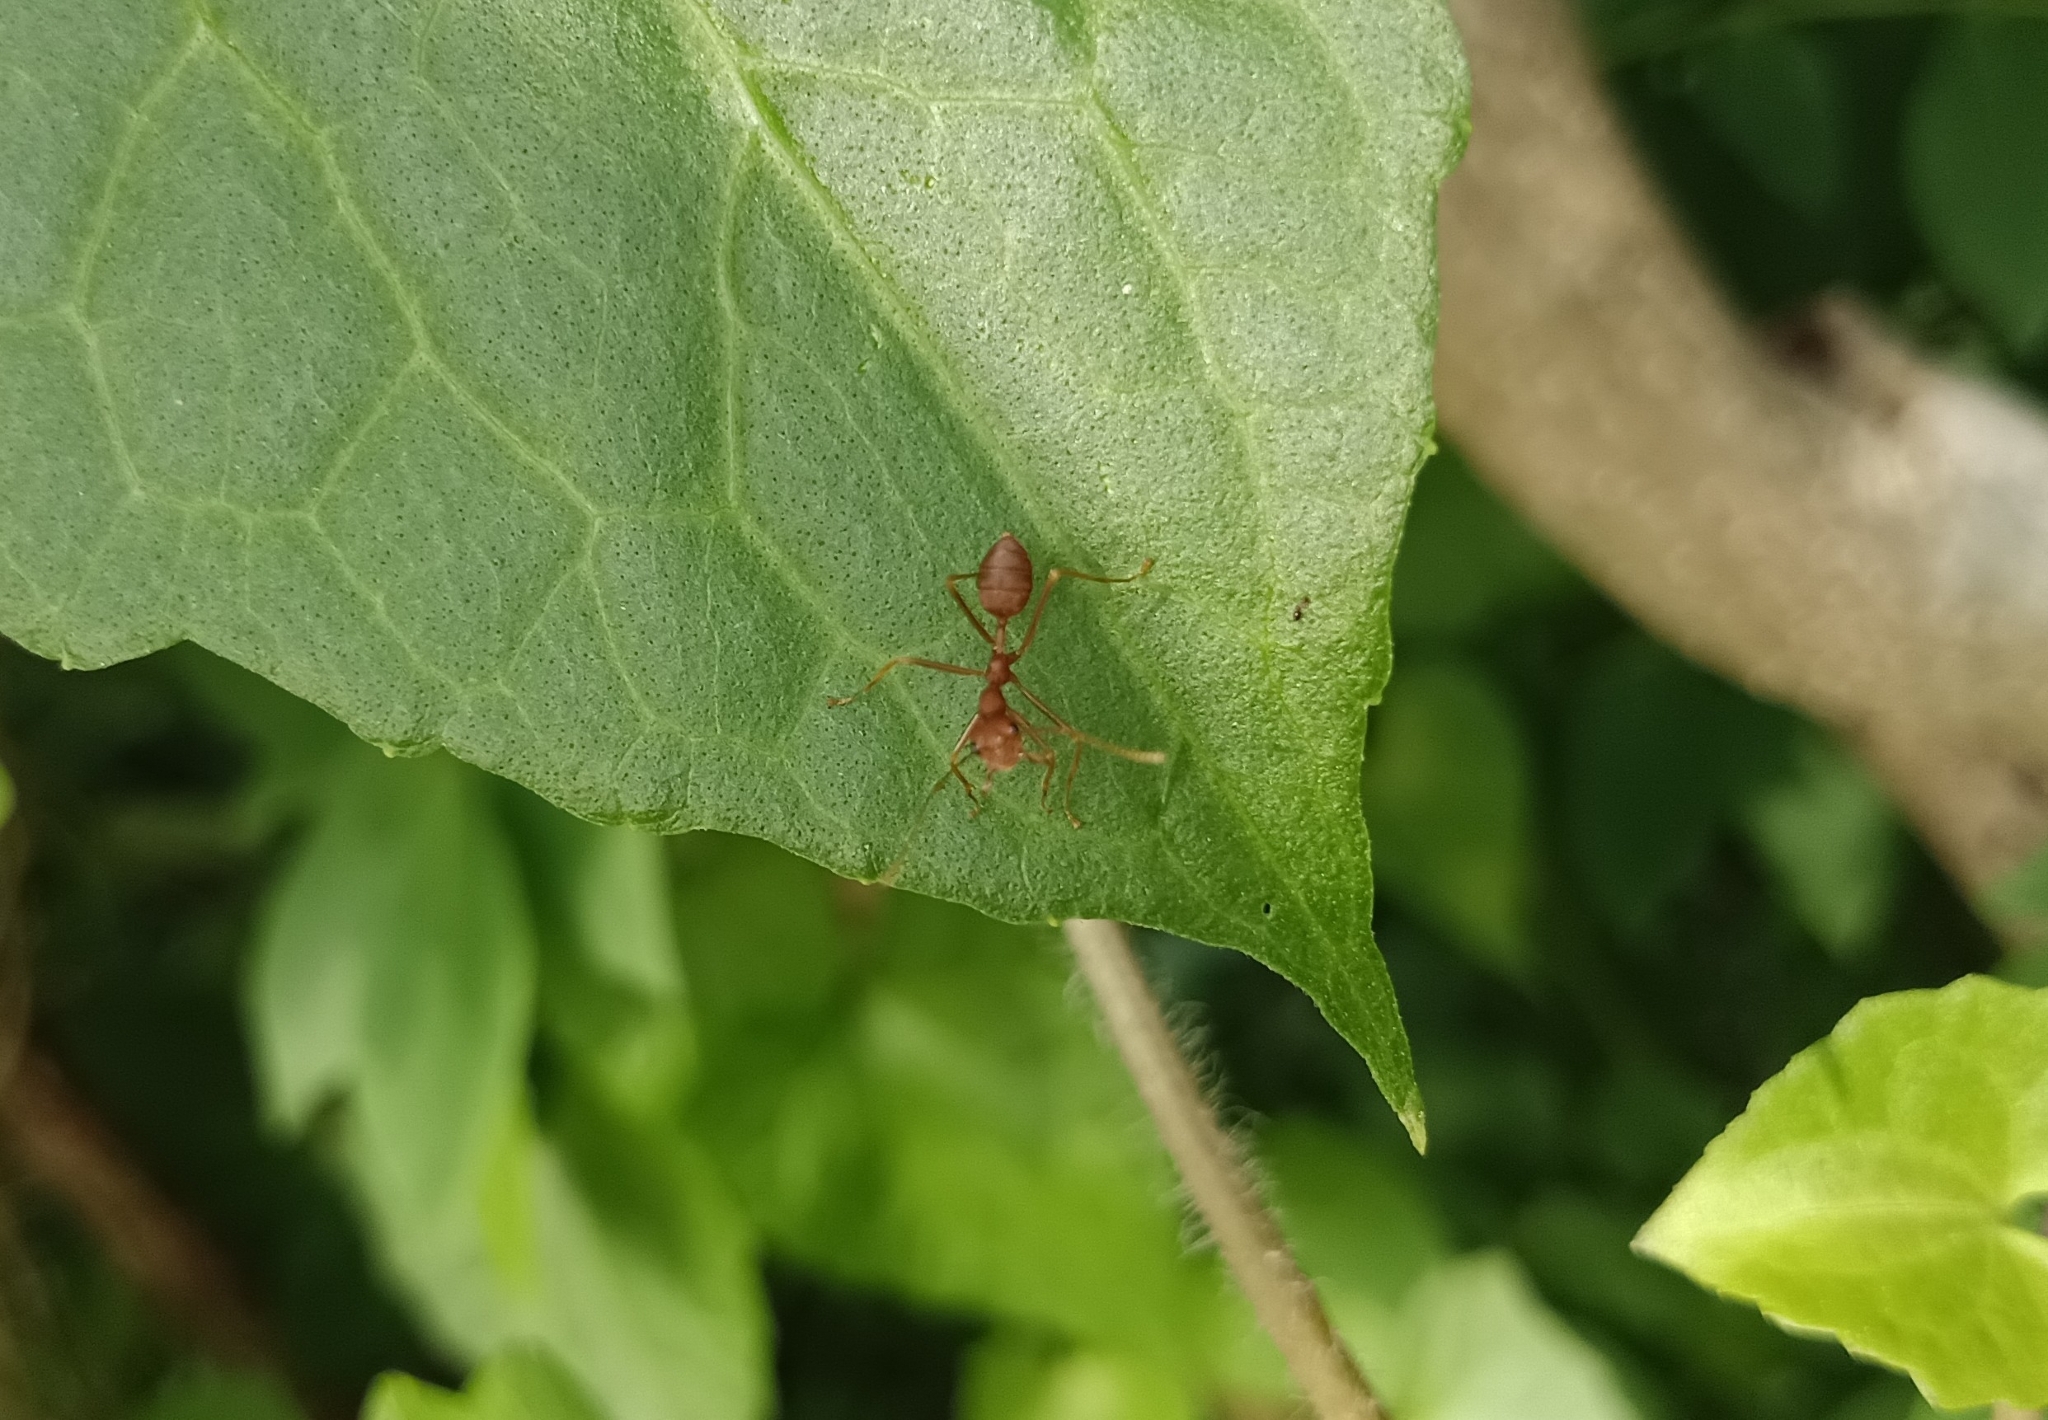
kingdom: Animalia
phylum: Arthropoda
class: Insecta
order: Hymenoptera
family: Formicidae
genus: Oecophylla
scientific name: Oecophylla smaragdina
